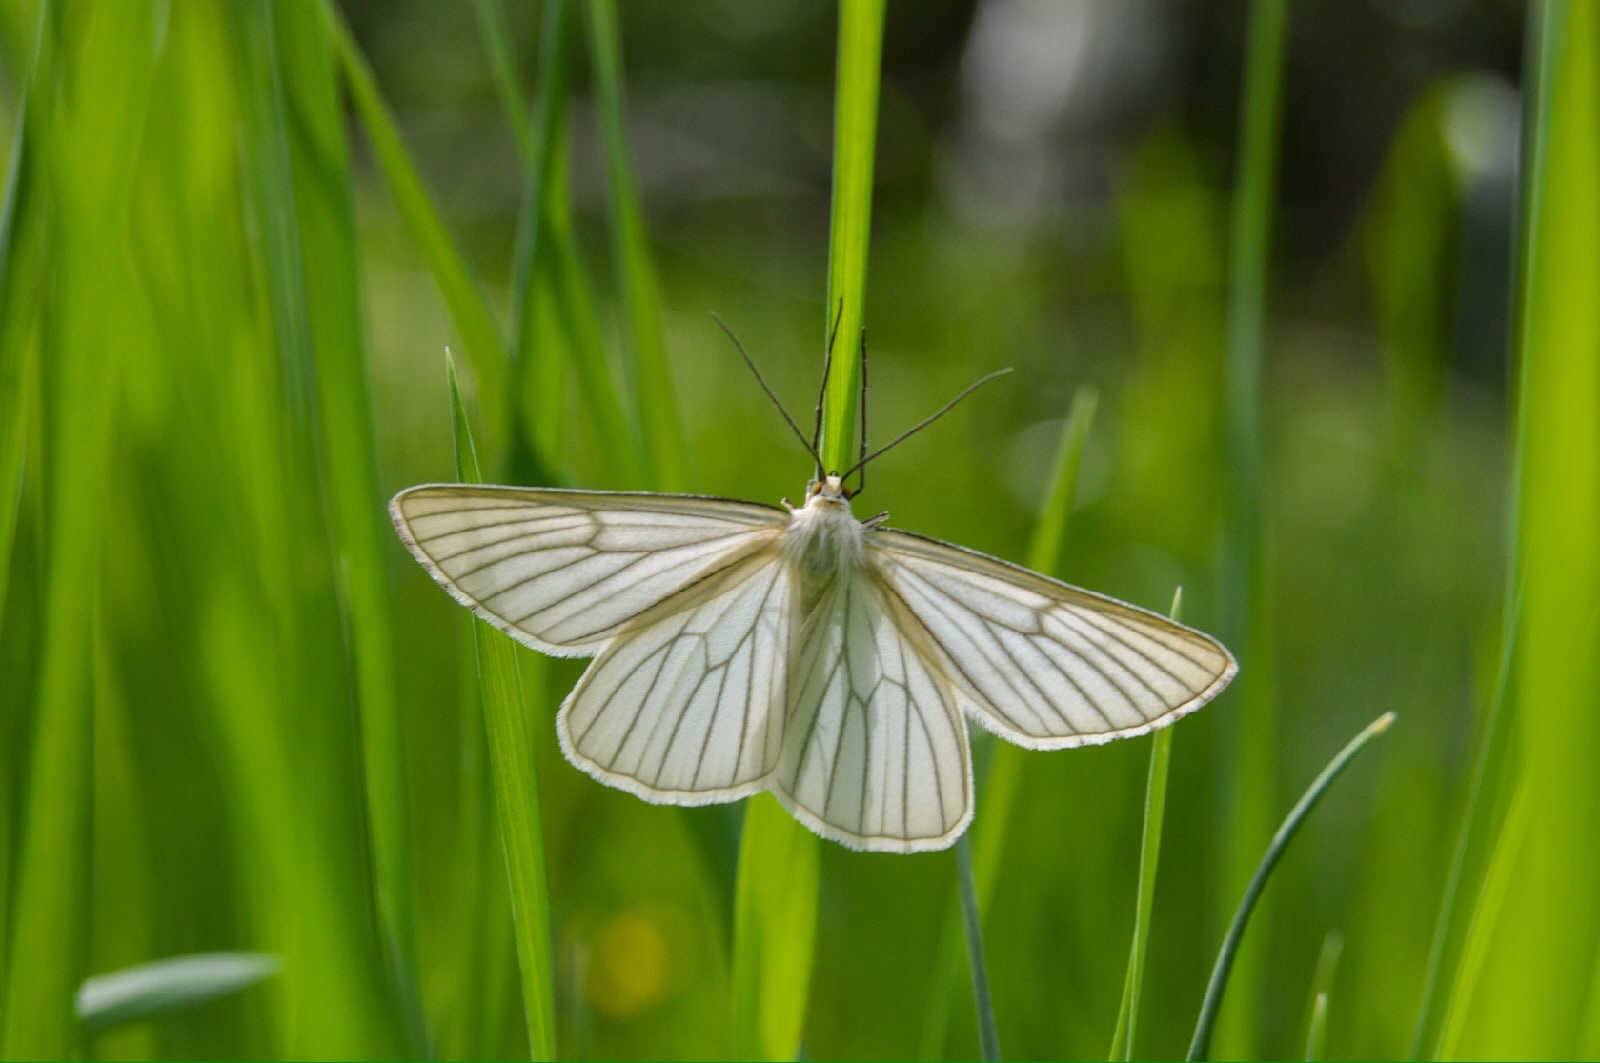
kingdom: Animalia
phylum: Arthropoda
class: Insecta
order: Lepidoptera
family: Geometridae
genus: Siona
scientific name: Siona lineata
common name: Black-veined moth
